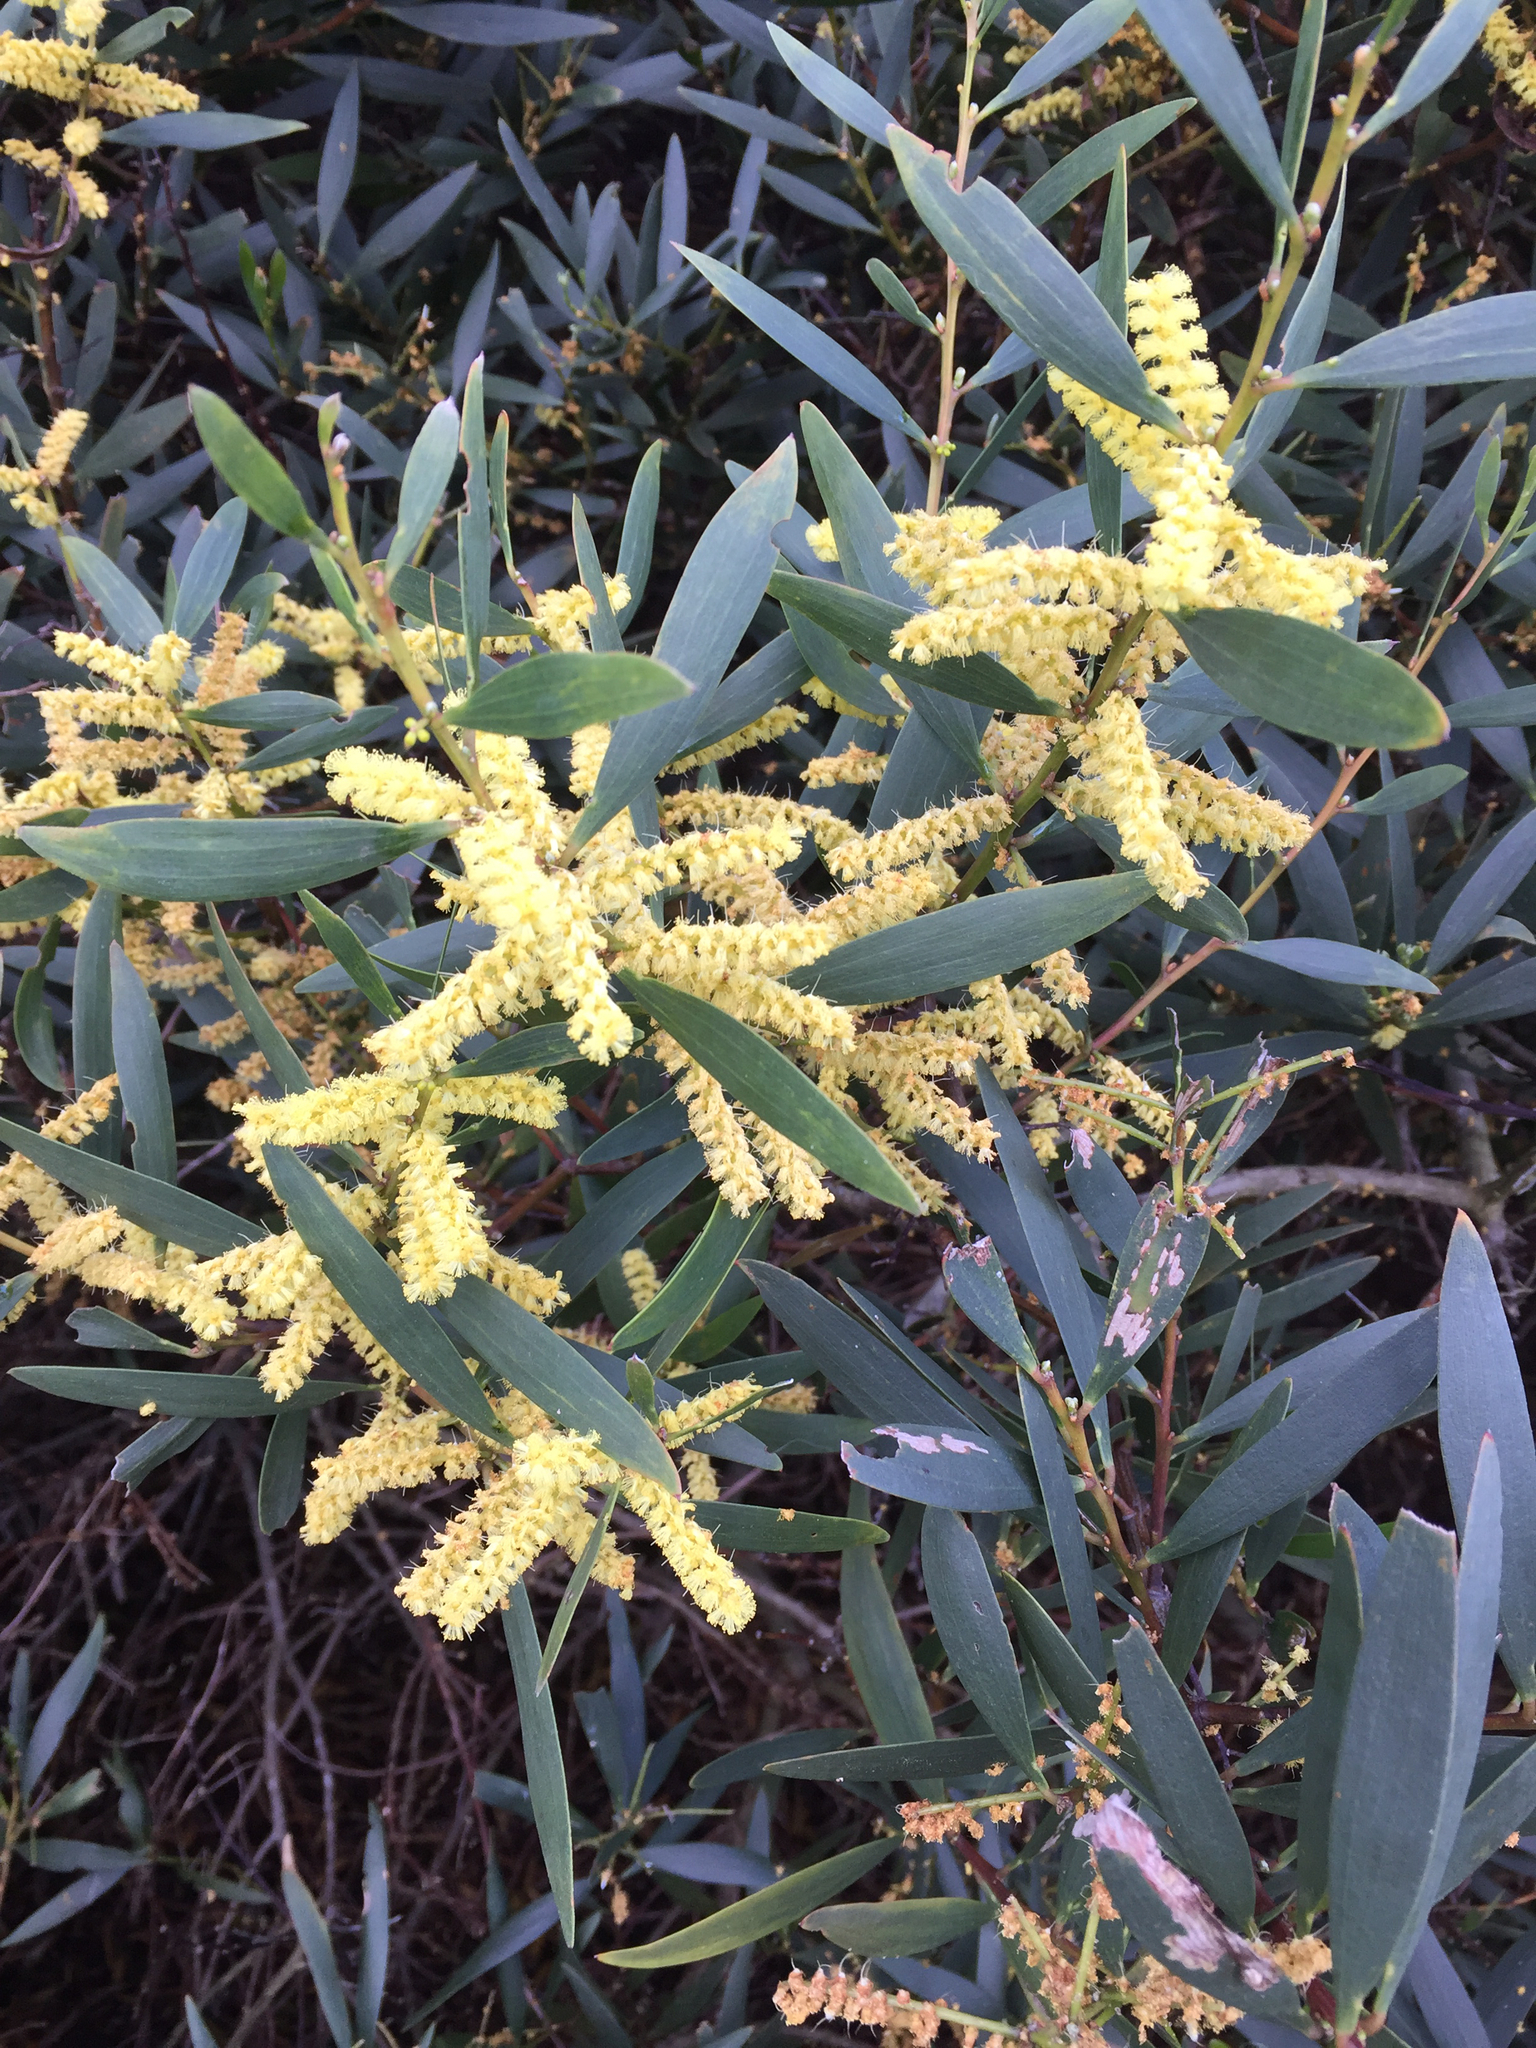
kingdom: Plantae
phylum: Tracheophyta
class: Magnoliopsida
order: Fabales
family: Fabaceae
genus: Acacia
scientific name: Acacia longifolia
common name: Sydney golden wattle
